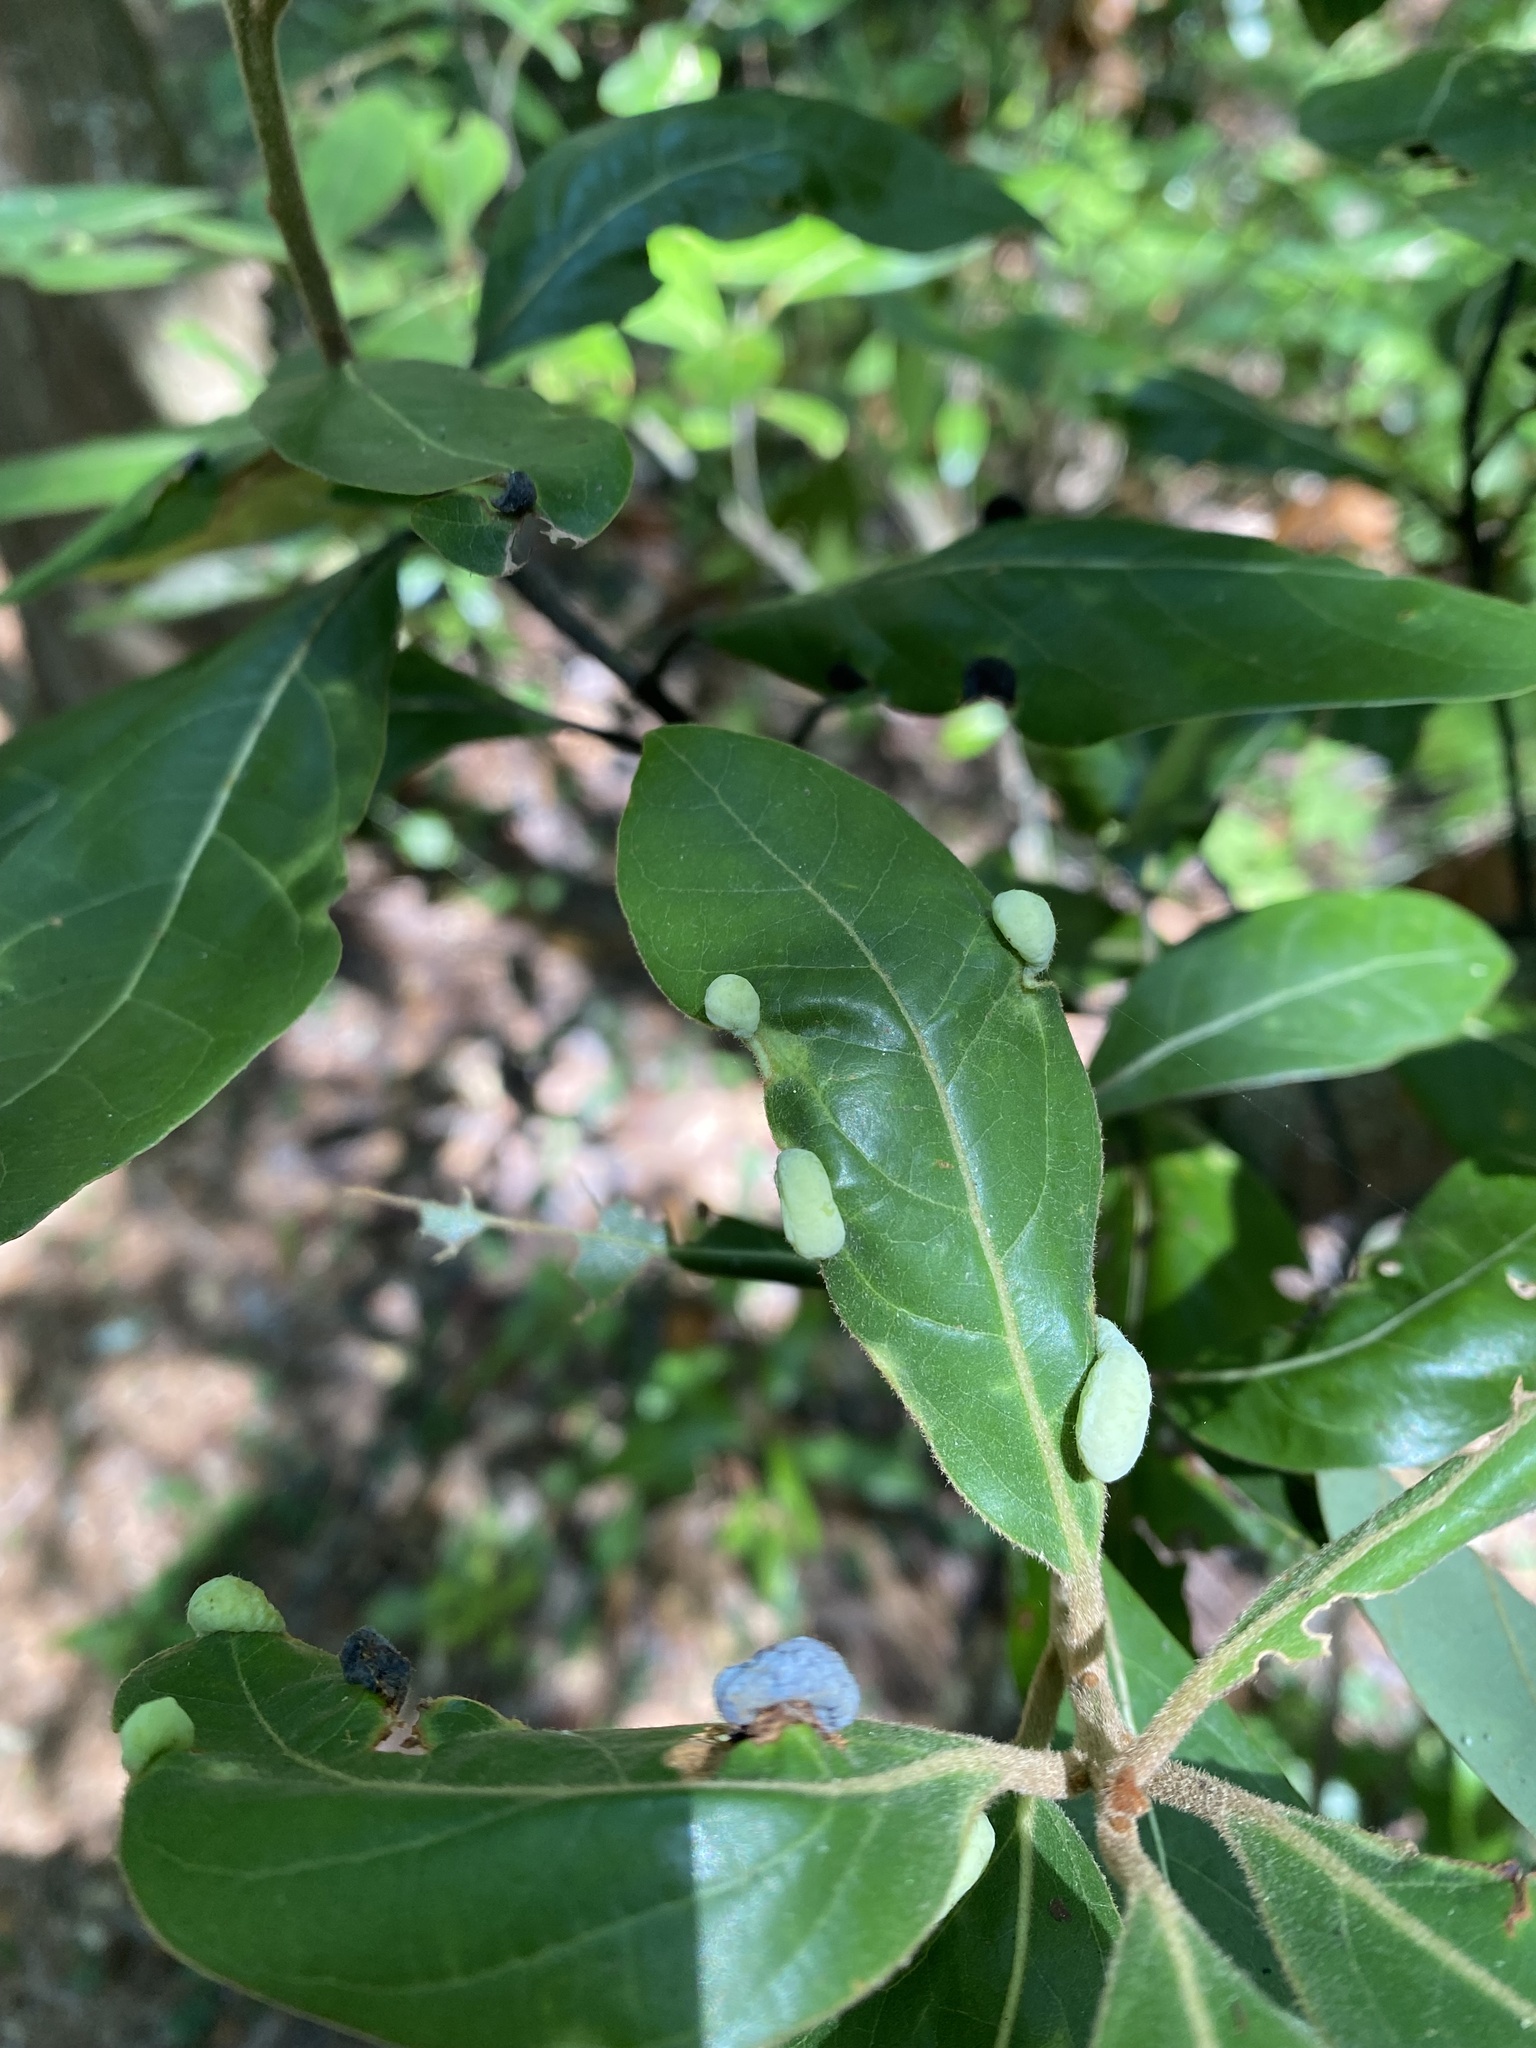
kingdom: Animalia
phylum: Arthropoda
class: Insecta
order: Hemiptera
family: Triozidae
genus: Trioza
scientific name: Trioza magnoliae
